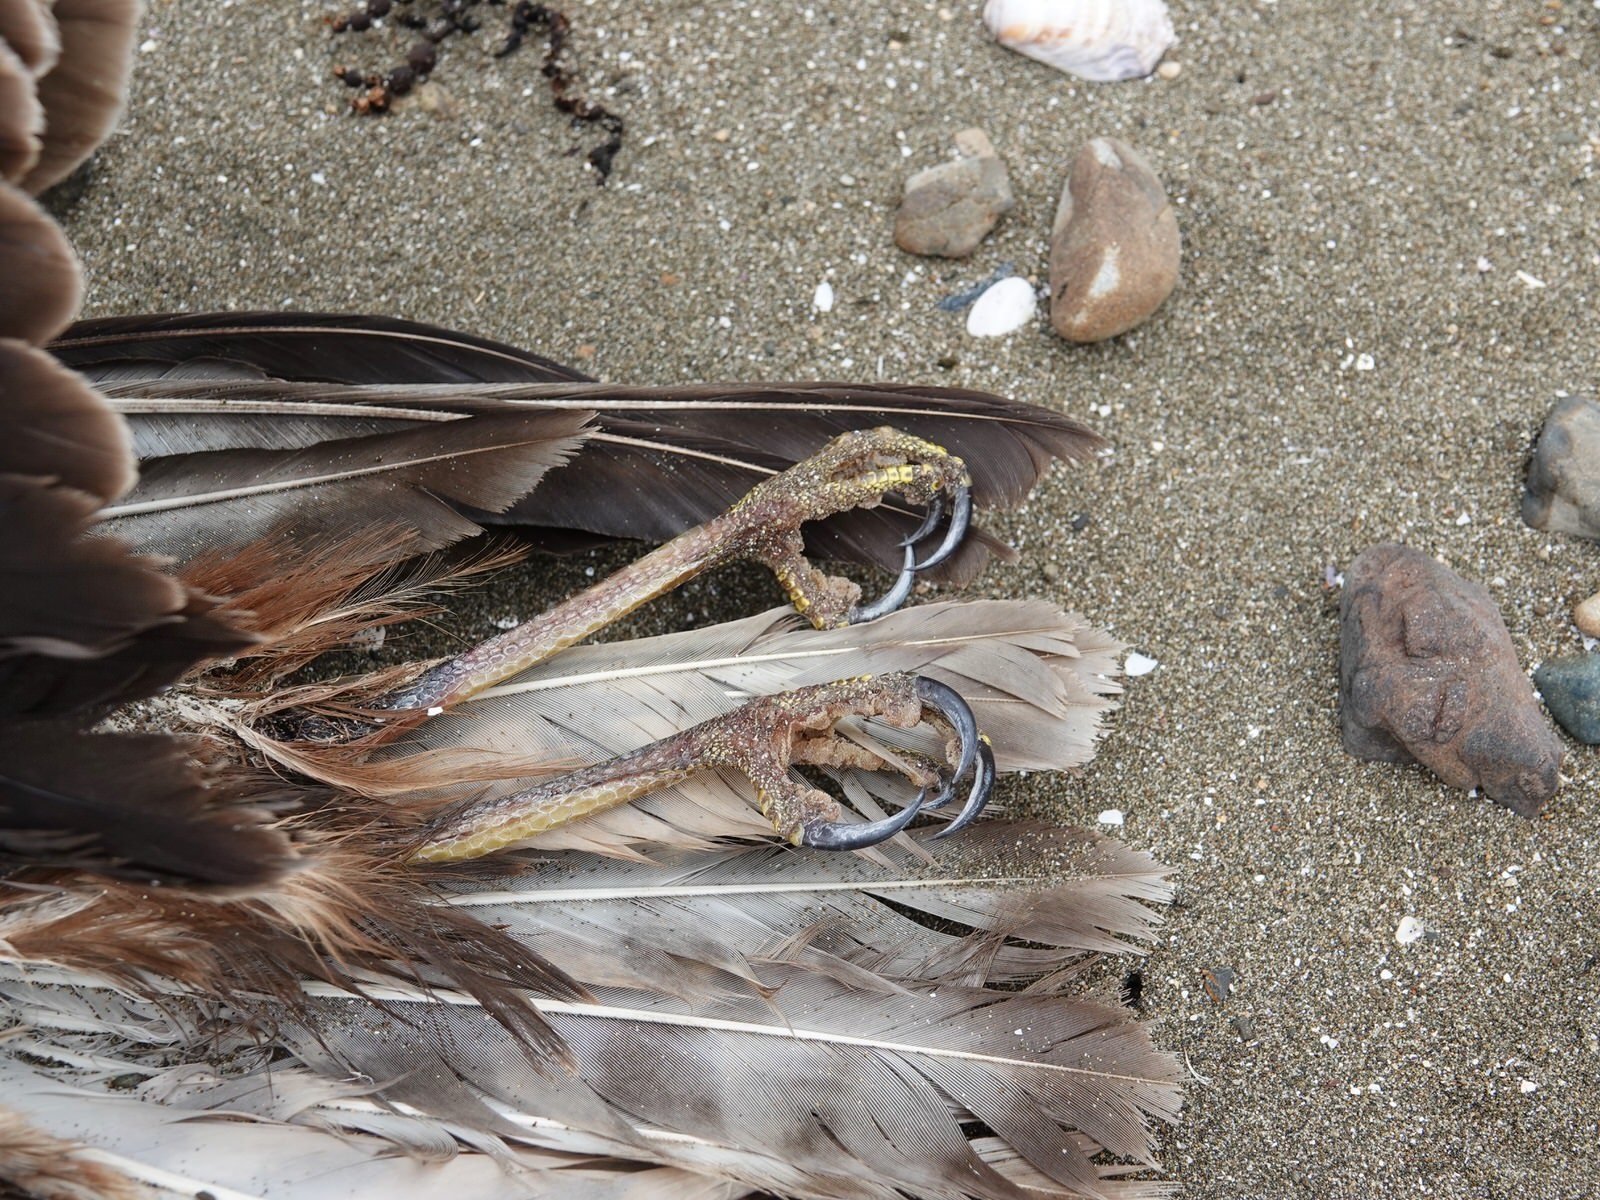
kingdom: Animalia
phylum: Chordata
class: Aves
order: Accipitriformes
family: Accipitridae
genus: Circus
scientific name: Circus approximans
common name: Swamp harrier
